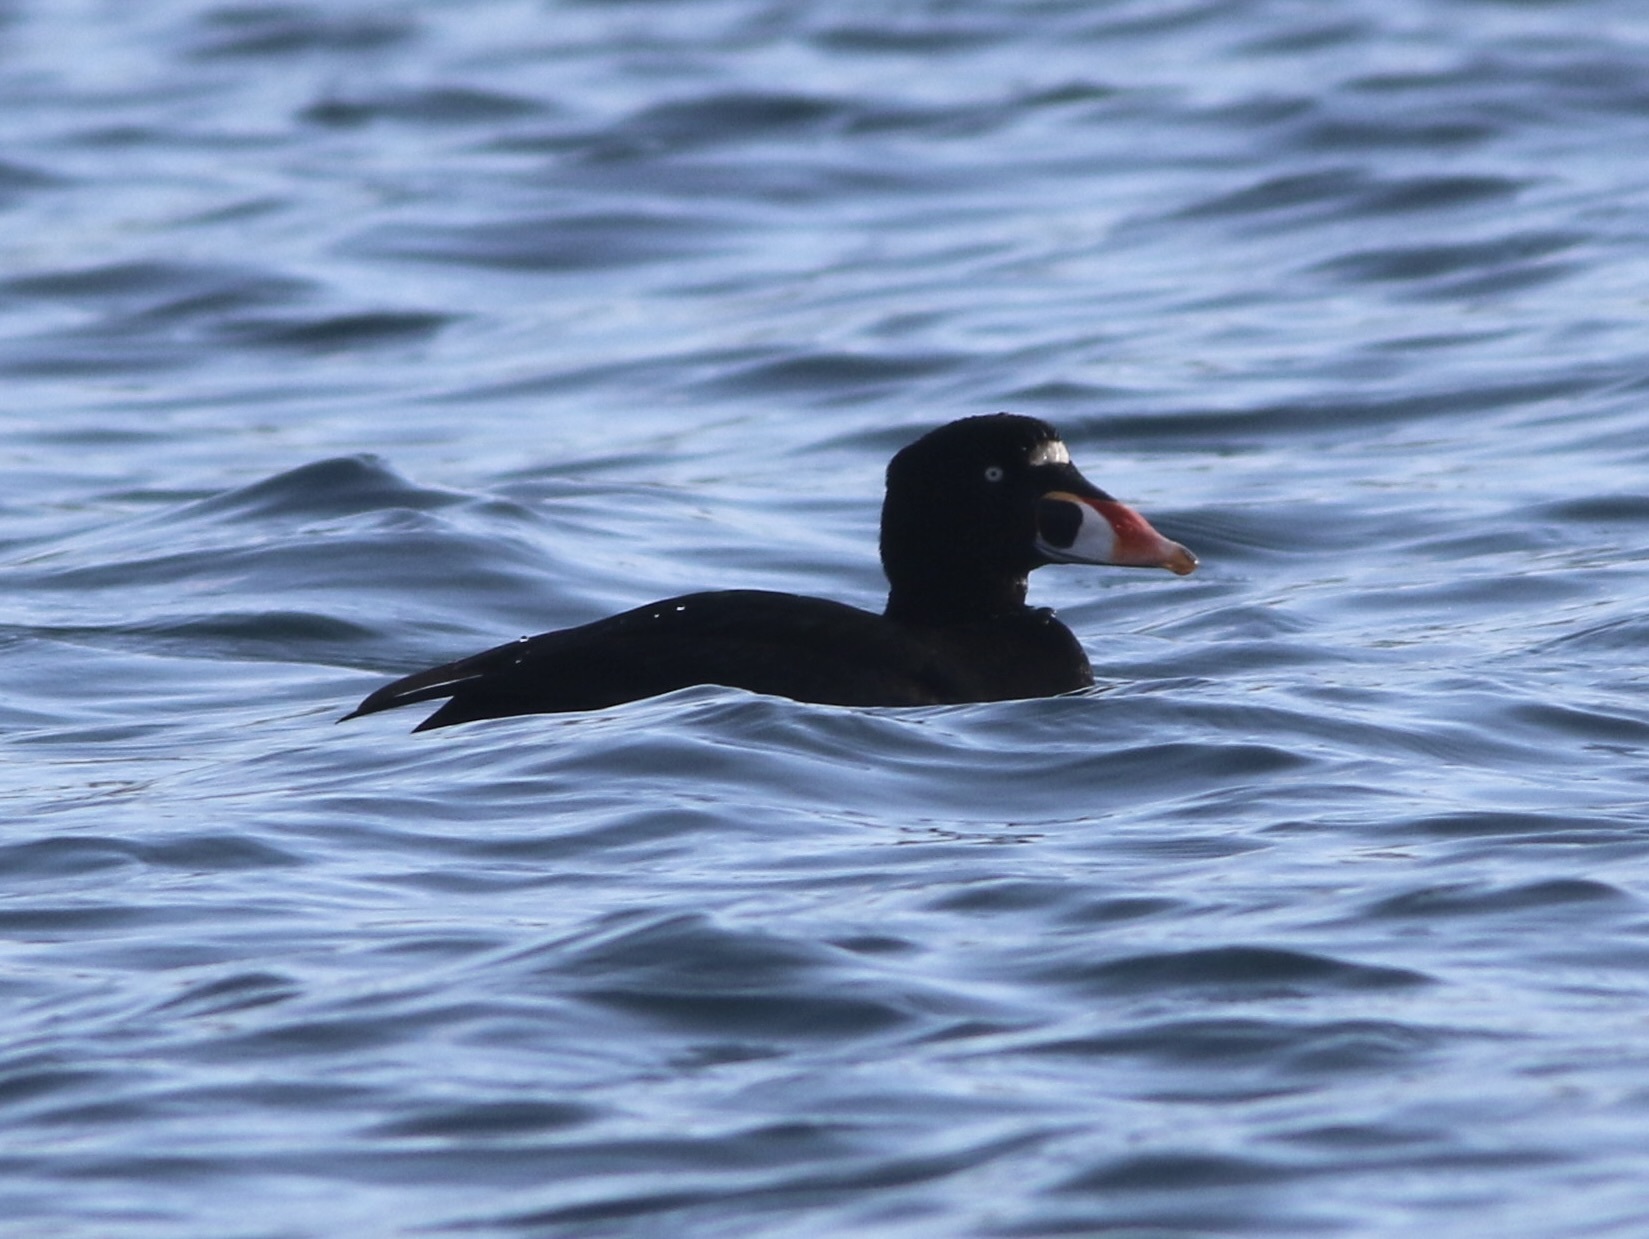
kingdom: Animalia
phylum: Chordata
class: Aves
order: Anseriformes
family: Anatidae
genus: Melanitta
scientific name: Melanitta perspicillata
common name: Surf scoter
